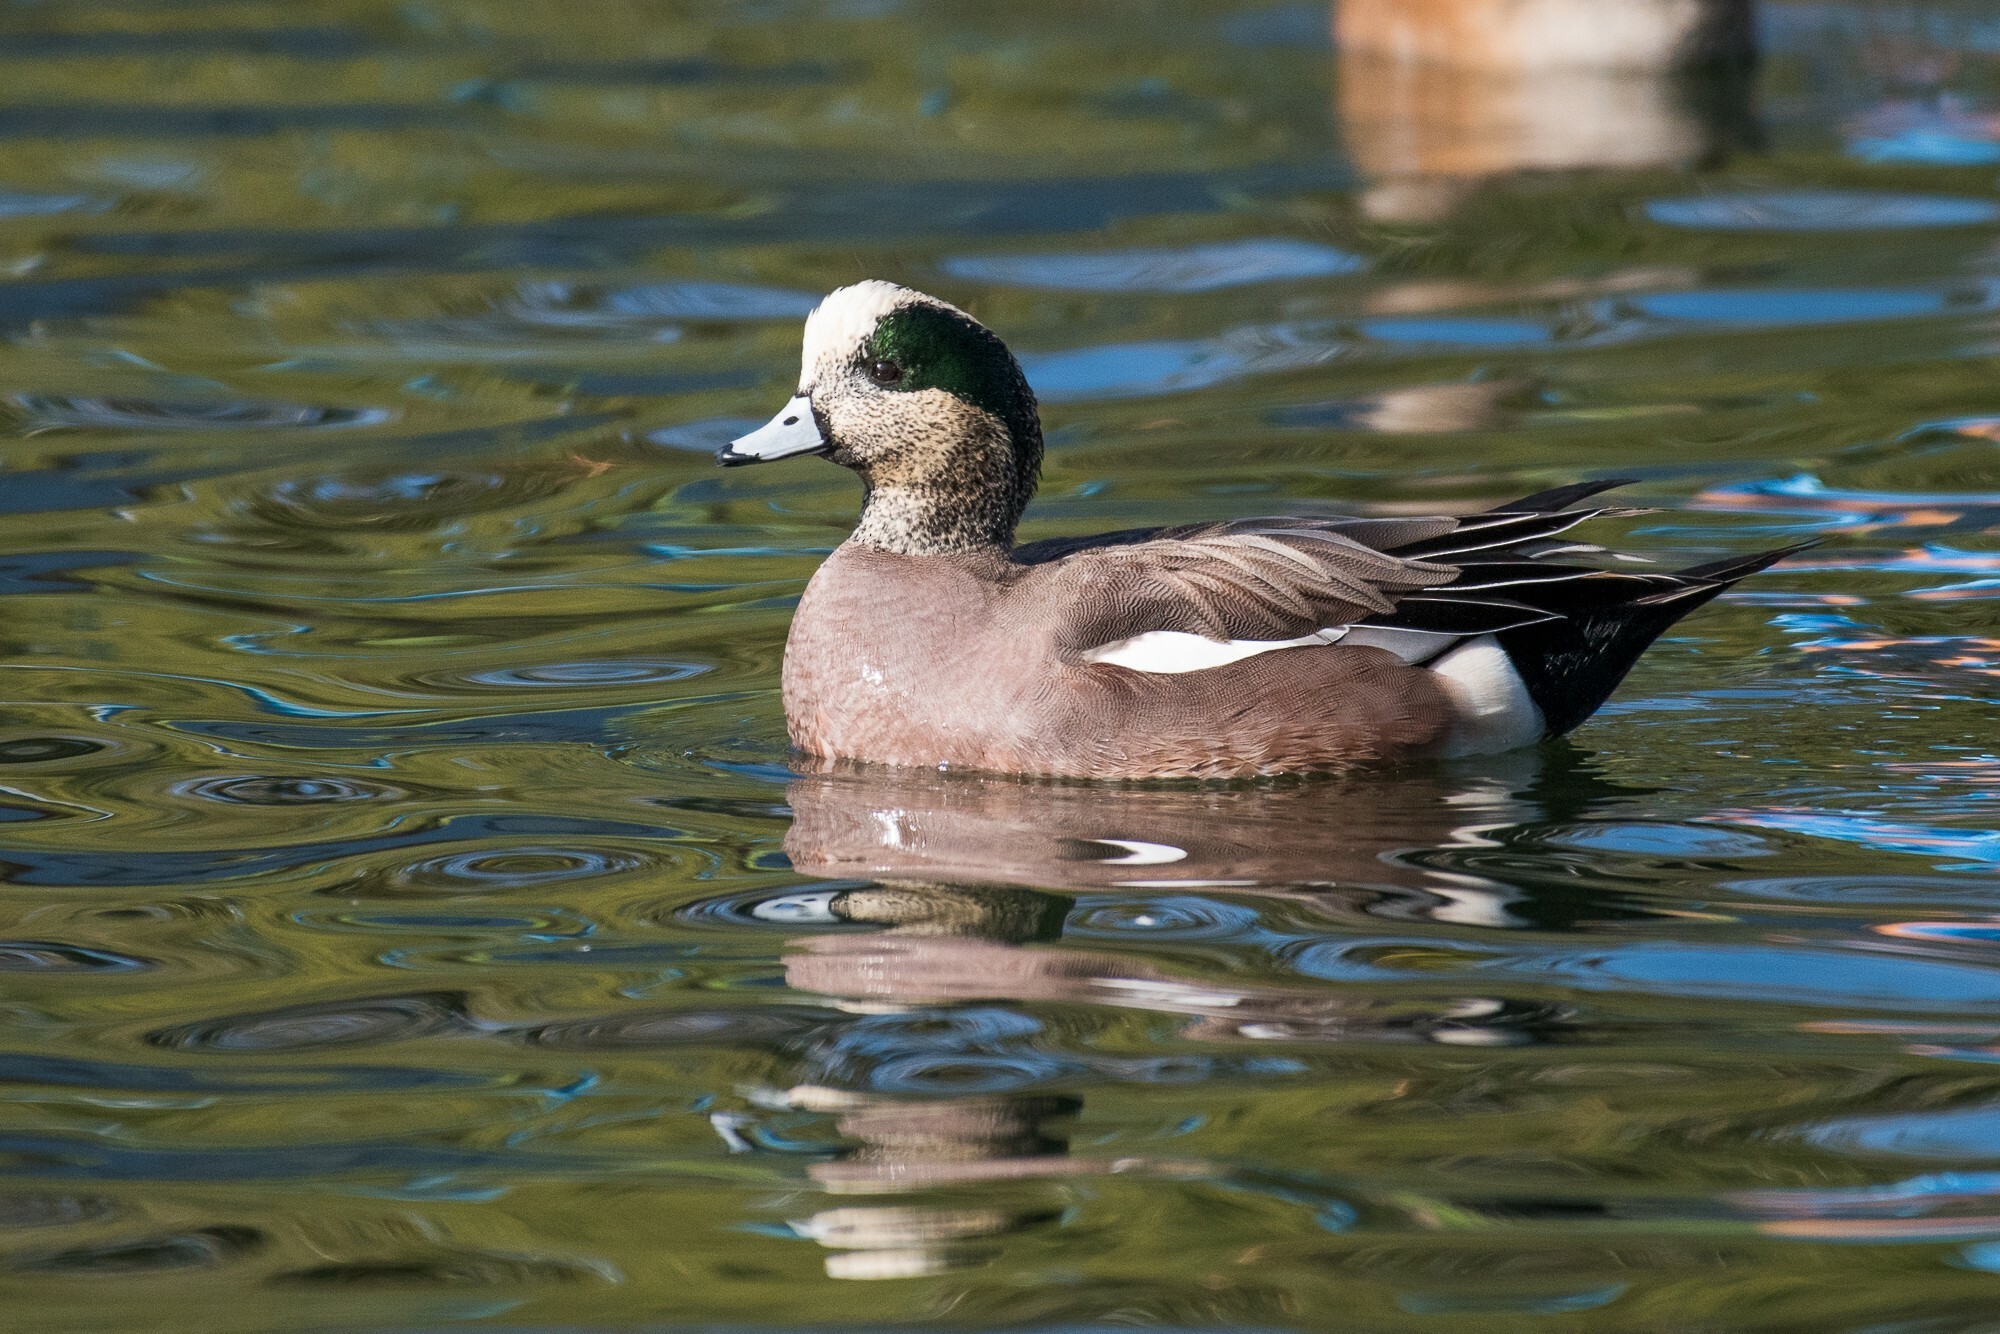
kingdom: Animalia
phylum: Chordata
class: Aves
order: Anseriformes
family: Anatidae
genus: Mareca
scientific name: Mareca americana
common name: American wigeon
